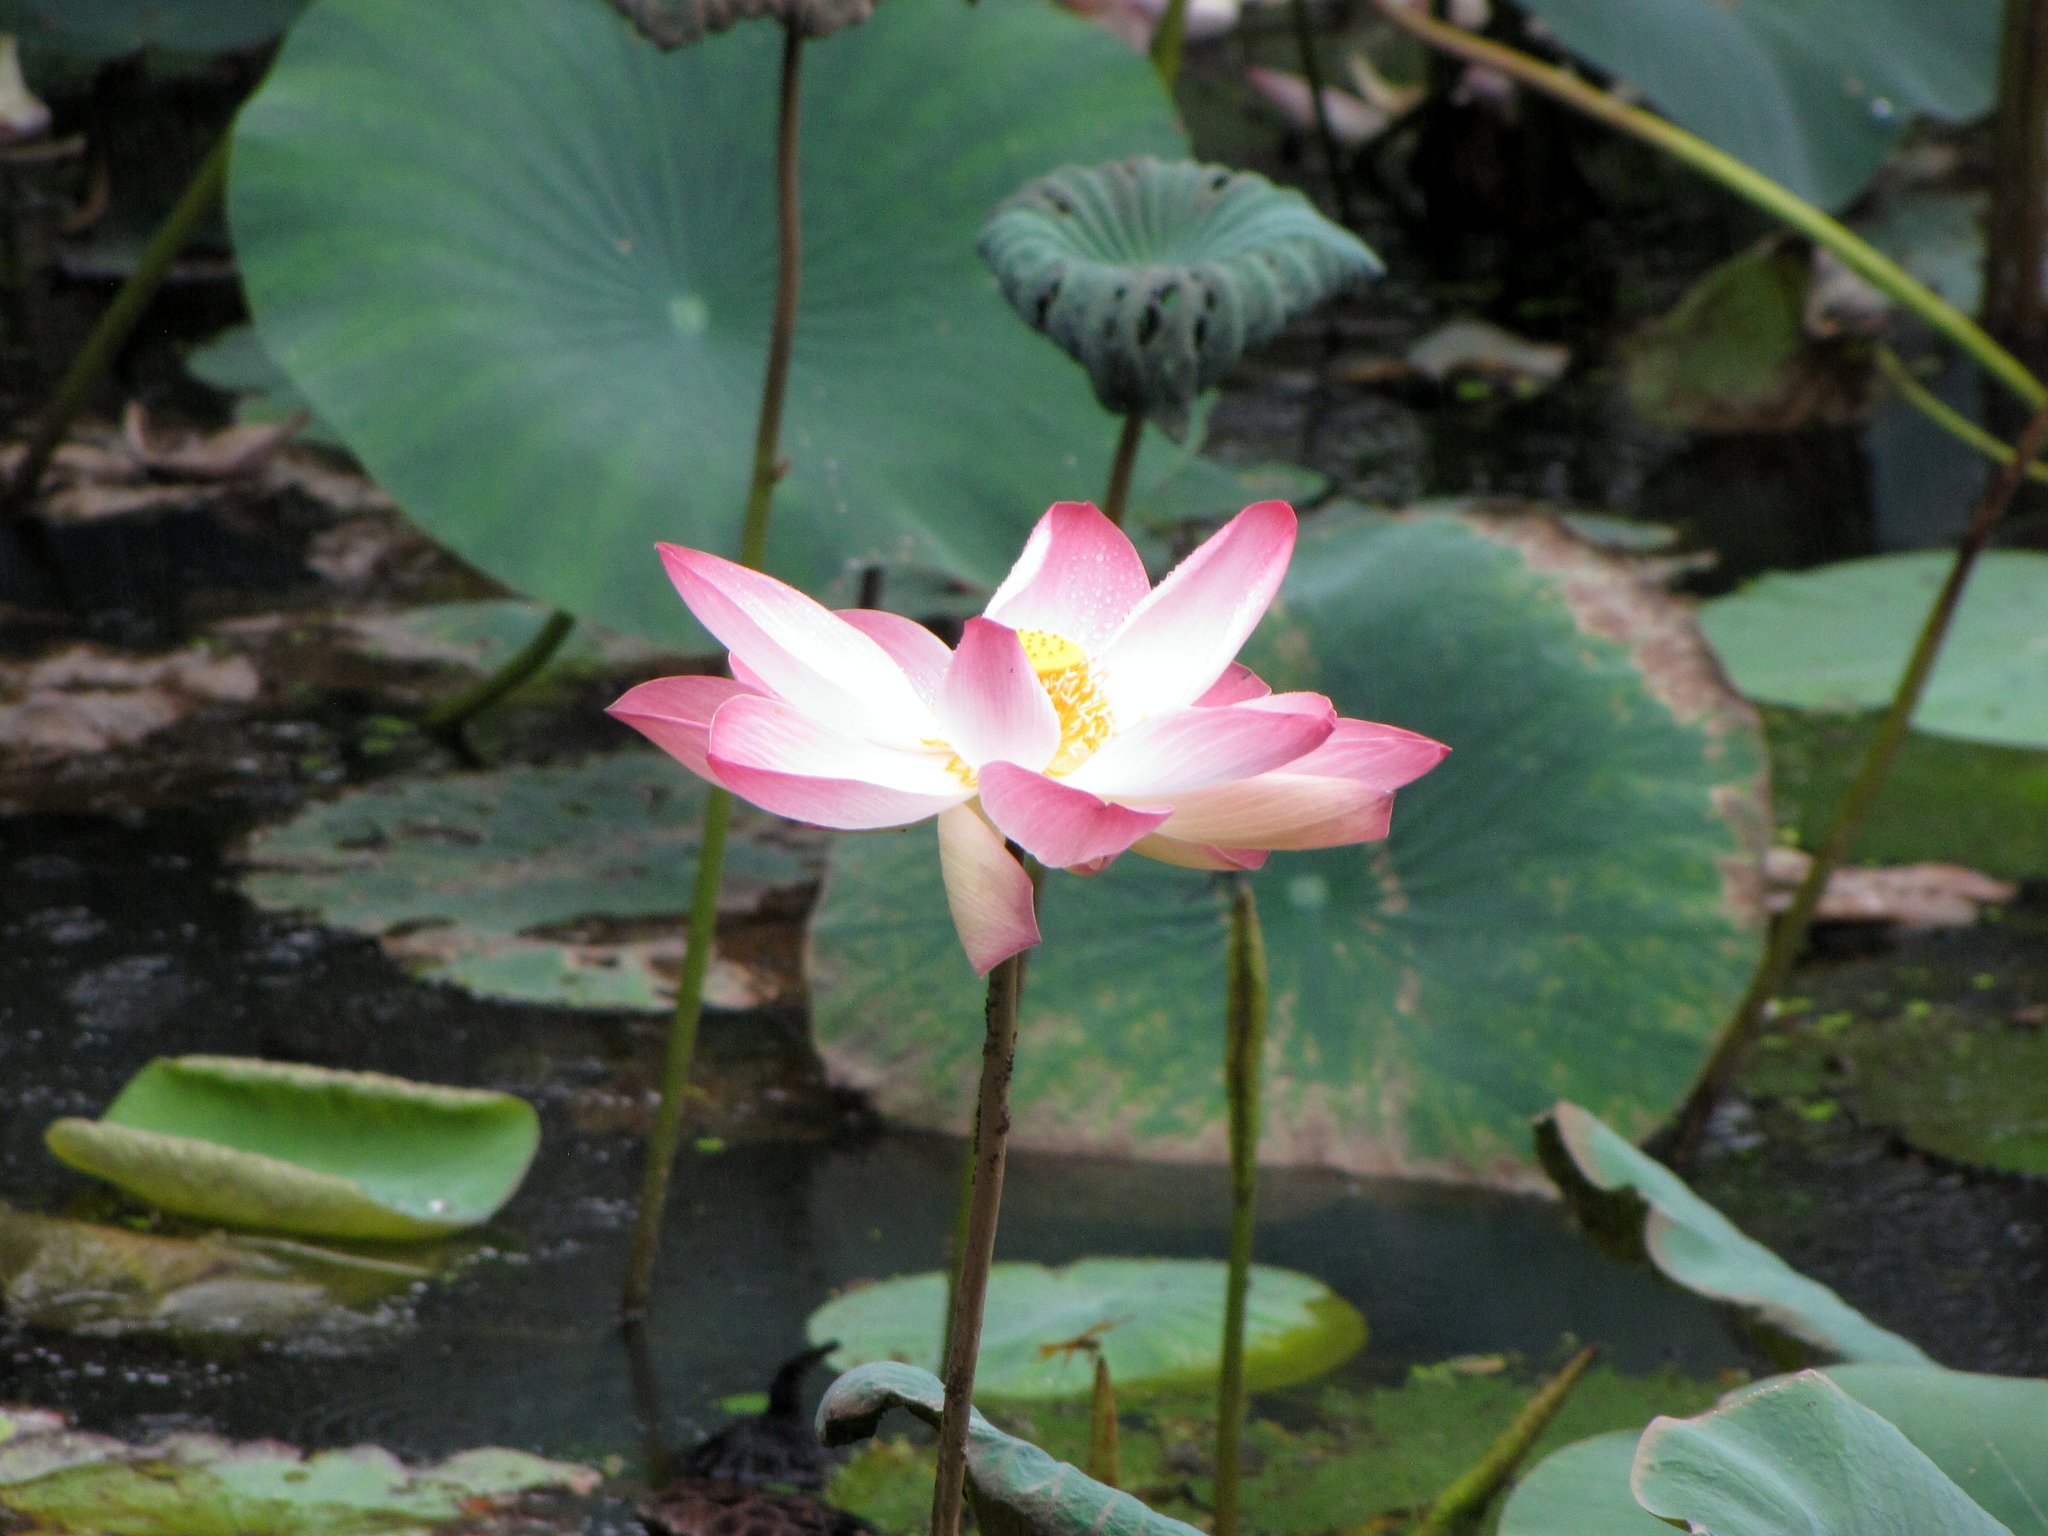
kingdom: Plantae
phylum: Tracheophyta
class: Magnoliopsida
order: Proteales
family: Nelumbonaceae
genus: Nelumbo
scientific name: Nelumbo nucifera
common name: Sacred lotus
